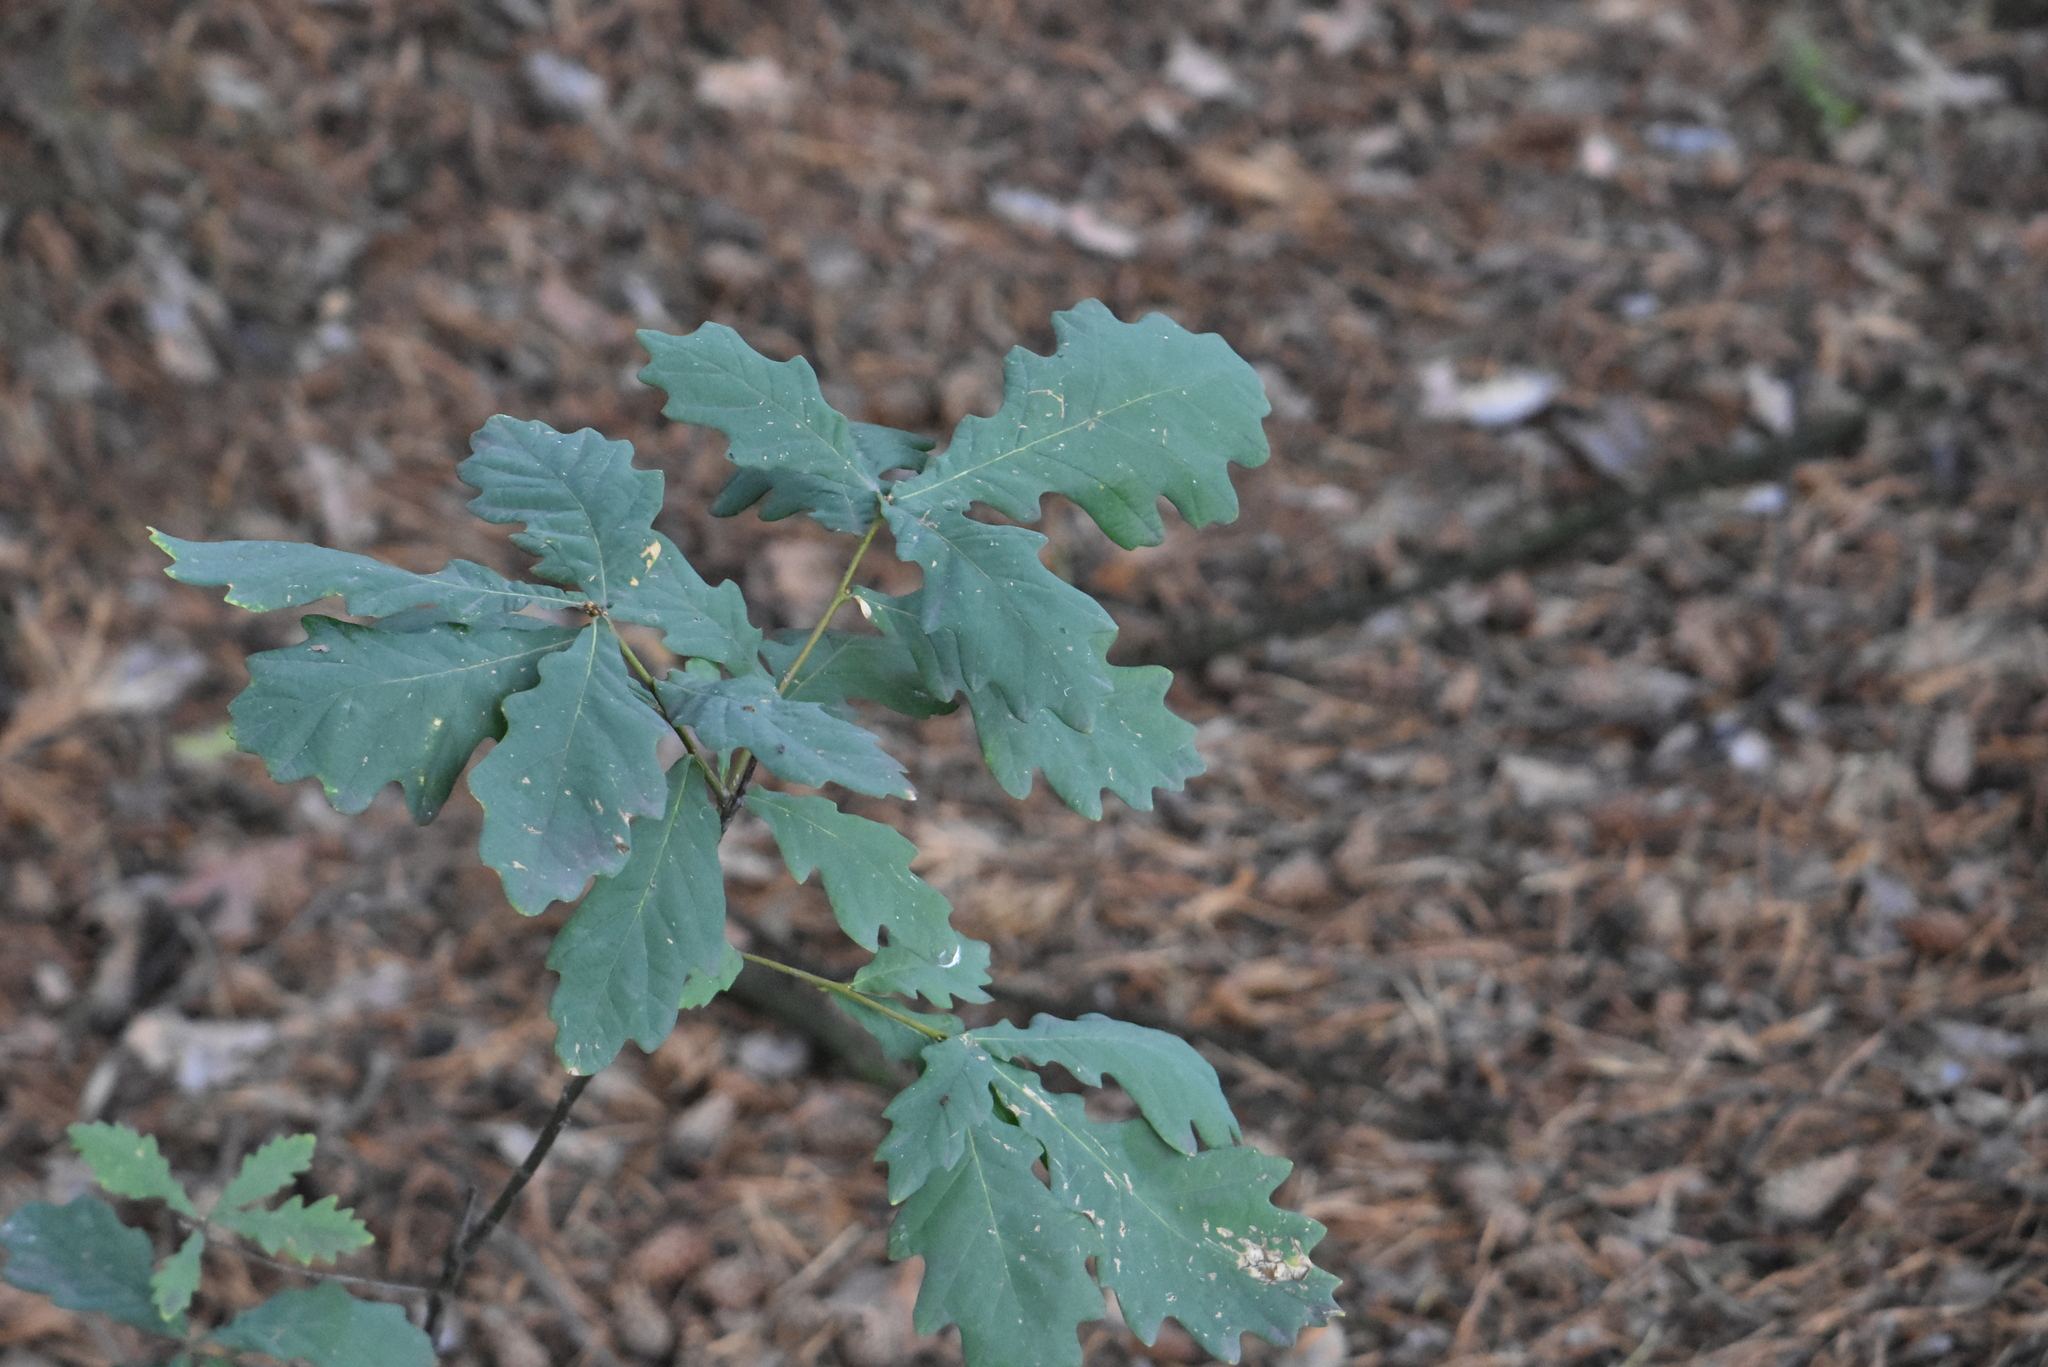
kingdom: Plantae
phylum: Tracheophyta
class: Magnoliopsida
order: Fagales
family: Fagaceae
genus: Quercus
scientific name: Quercus robur
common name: Pedunculate oak
